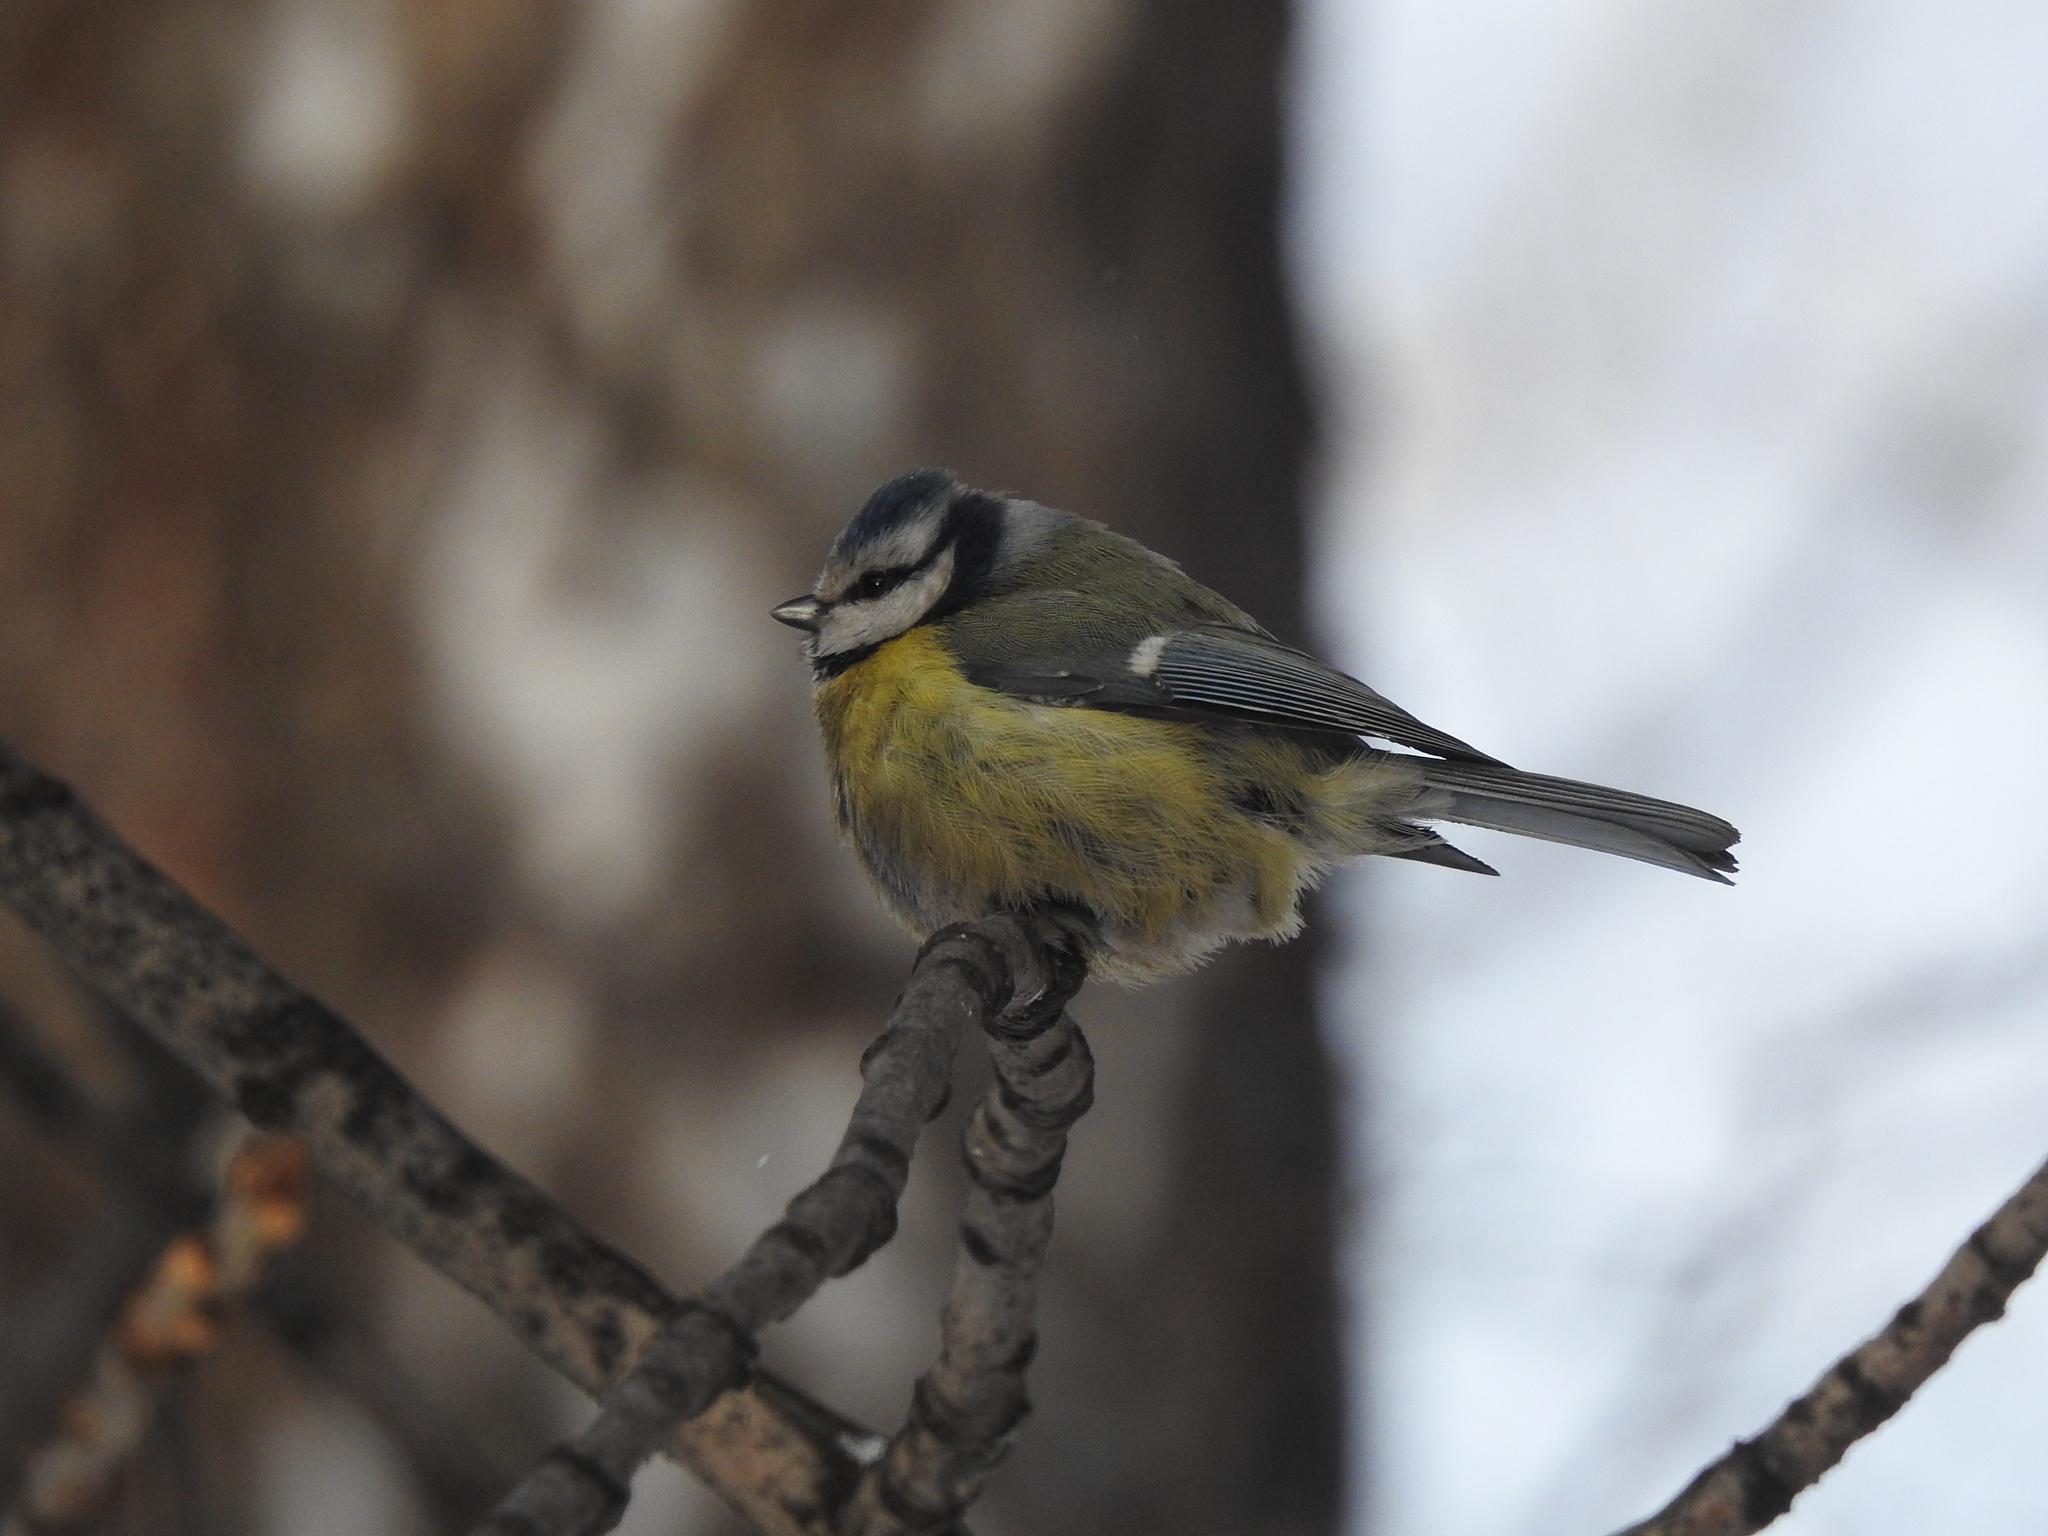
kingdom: Animalia
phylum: Chordata
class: Aves
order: Passeriformes
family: Paridae
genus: Cyanistes
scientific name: Cyanistes caeruleus
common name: Eurasian blue tit
